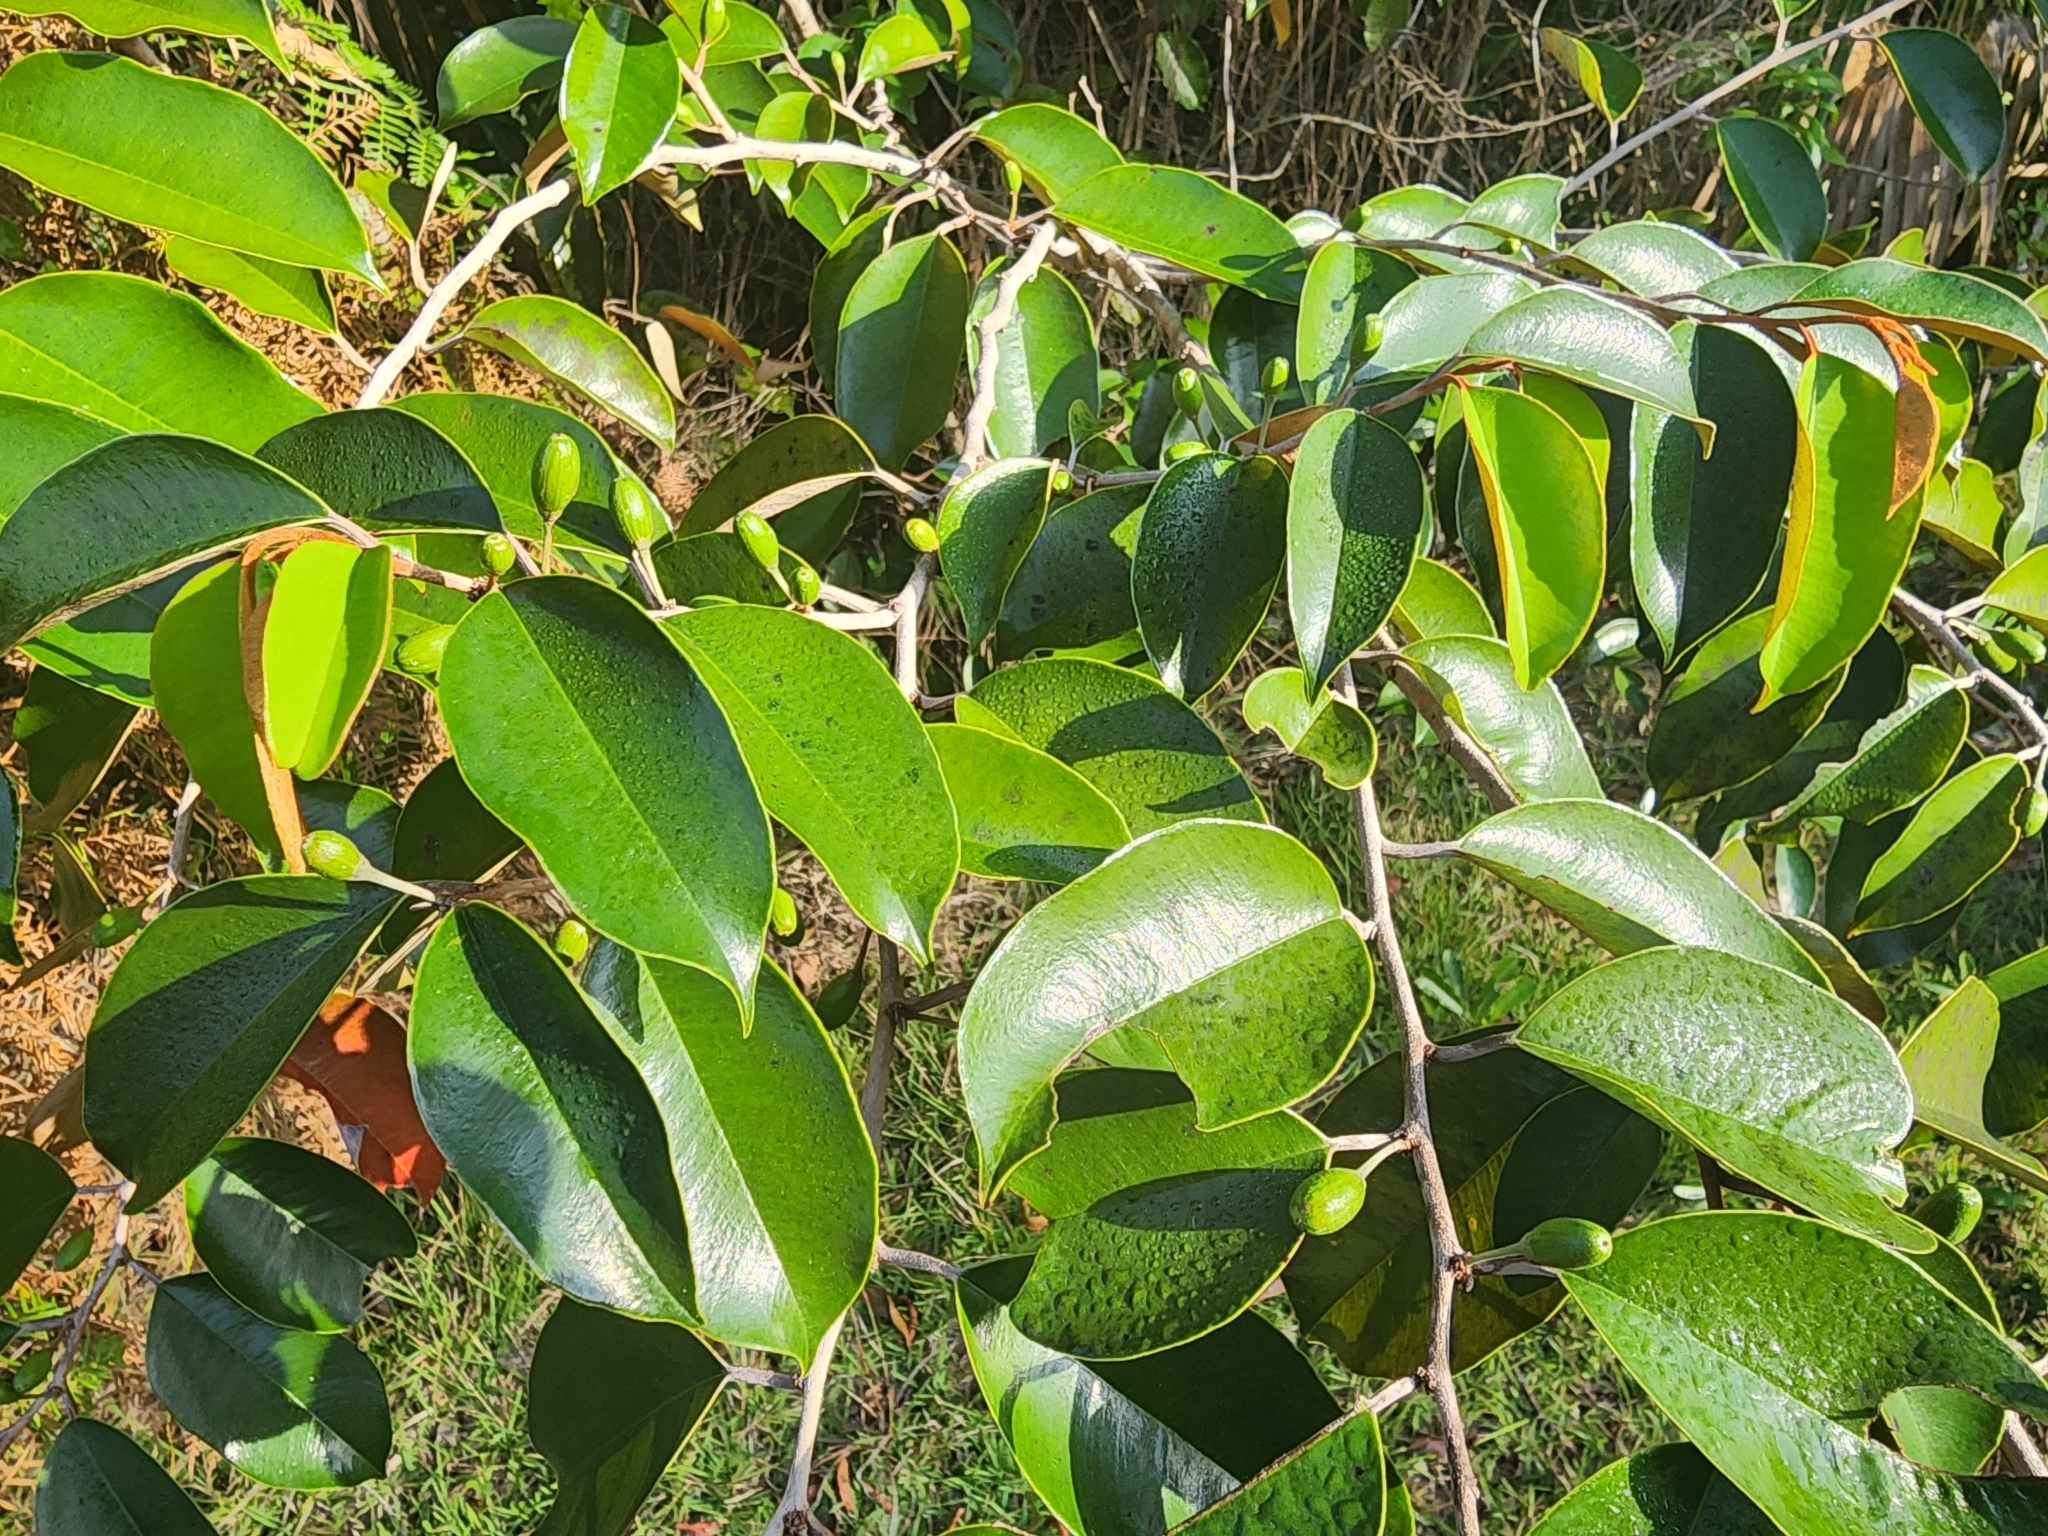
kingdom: Plantae
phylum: Tracheophyta
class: Magnoliopsida
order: Ericales
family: Sapotaceae
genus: Chrysophyllum
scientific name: Chrysophyllum oliviforme
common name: Satinleaf
